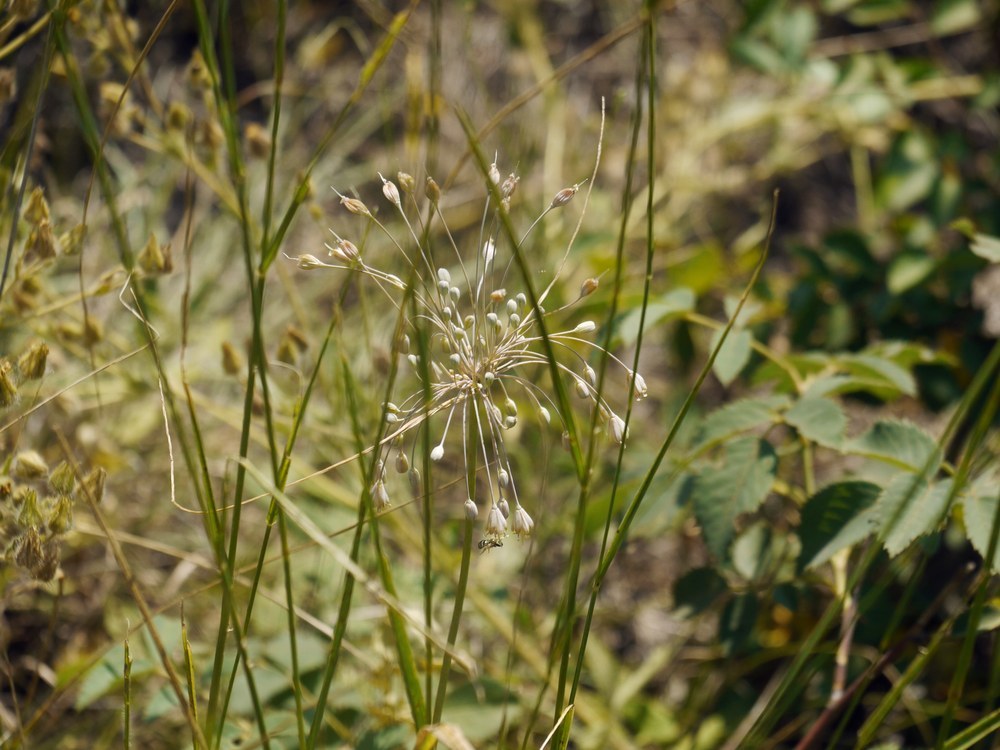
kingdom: Plantae
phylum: Tracheophyta
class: Liliopsida
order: Asparagales
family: Amaryllidaceae
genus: Allium
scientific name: Allium flavum
